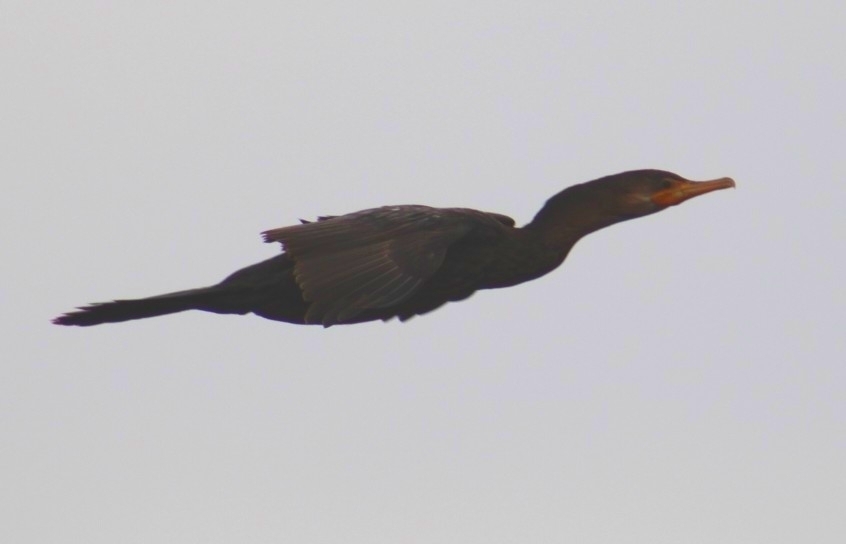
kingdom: Animalia
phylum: Chordata
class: Aves
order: Suliformes
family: Phalacrocoracidae
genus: Phalacrocorax
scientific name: Phalacrocorax auritus
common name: Double-crested cormorant
